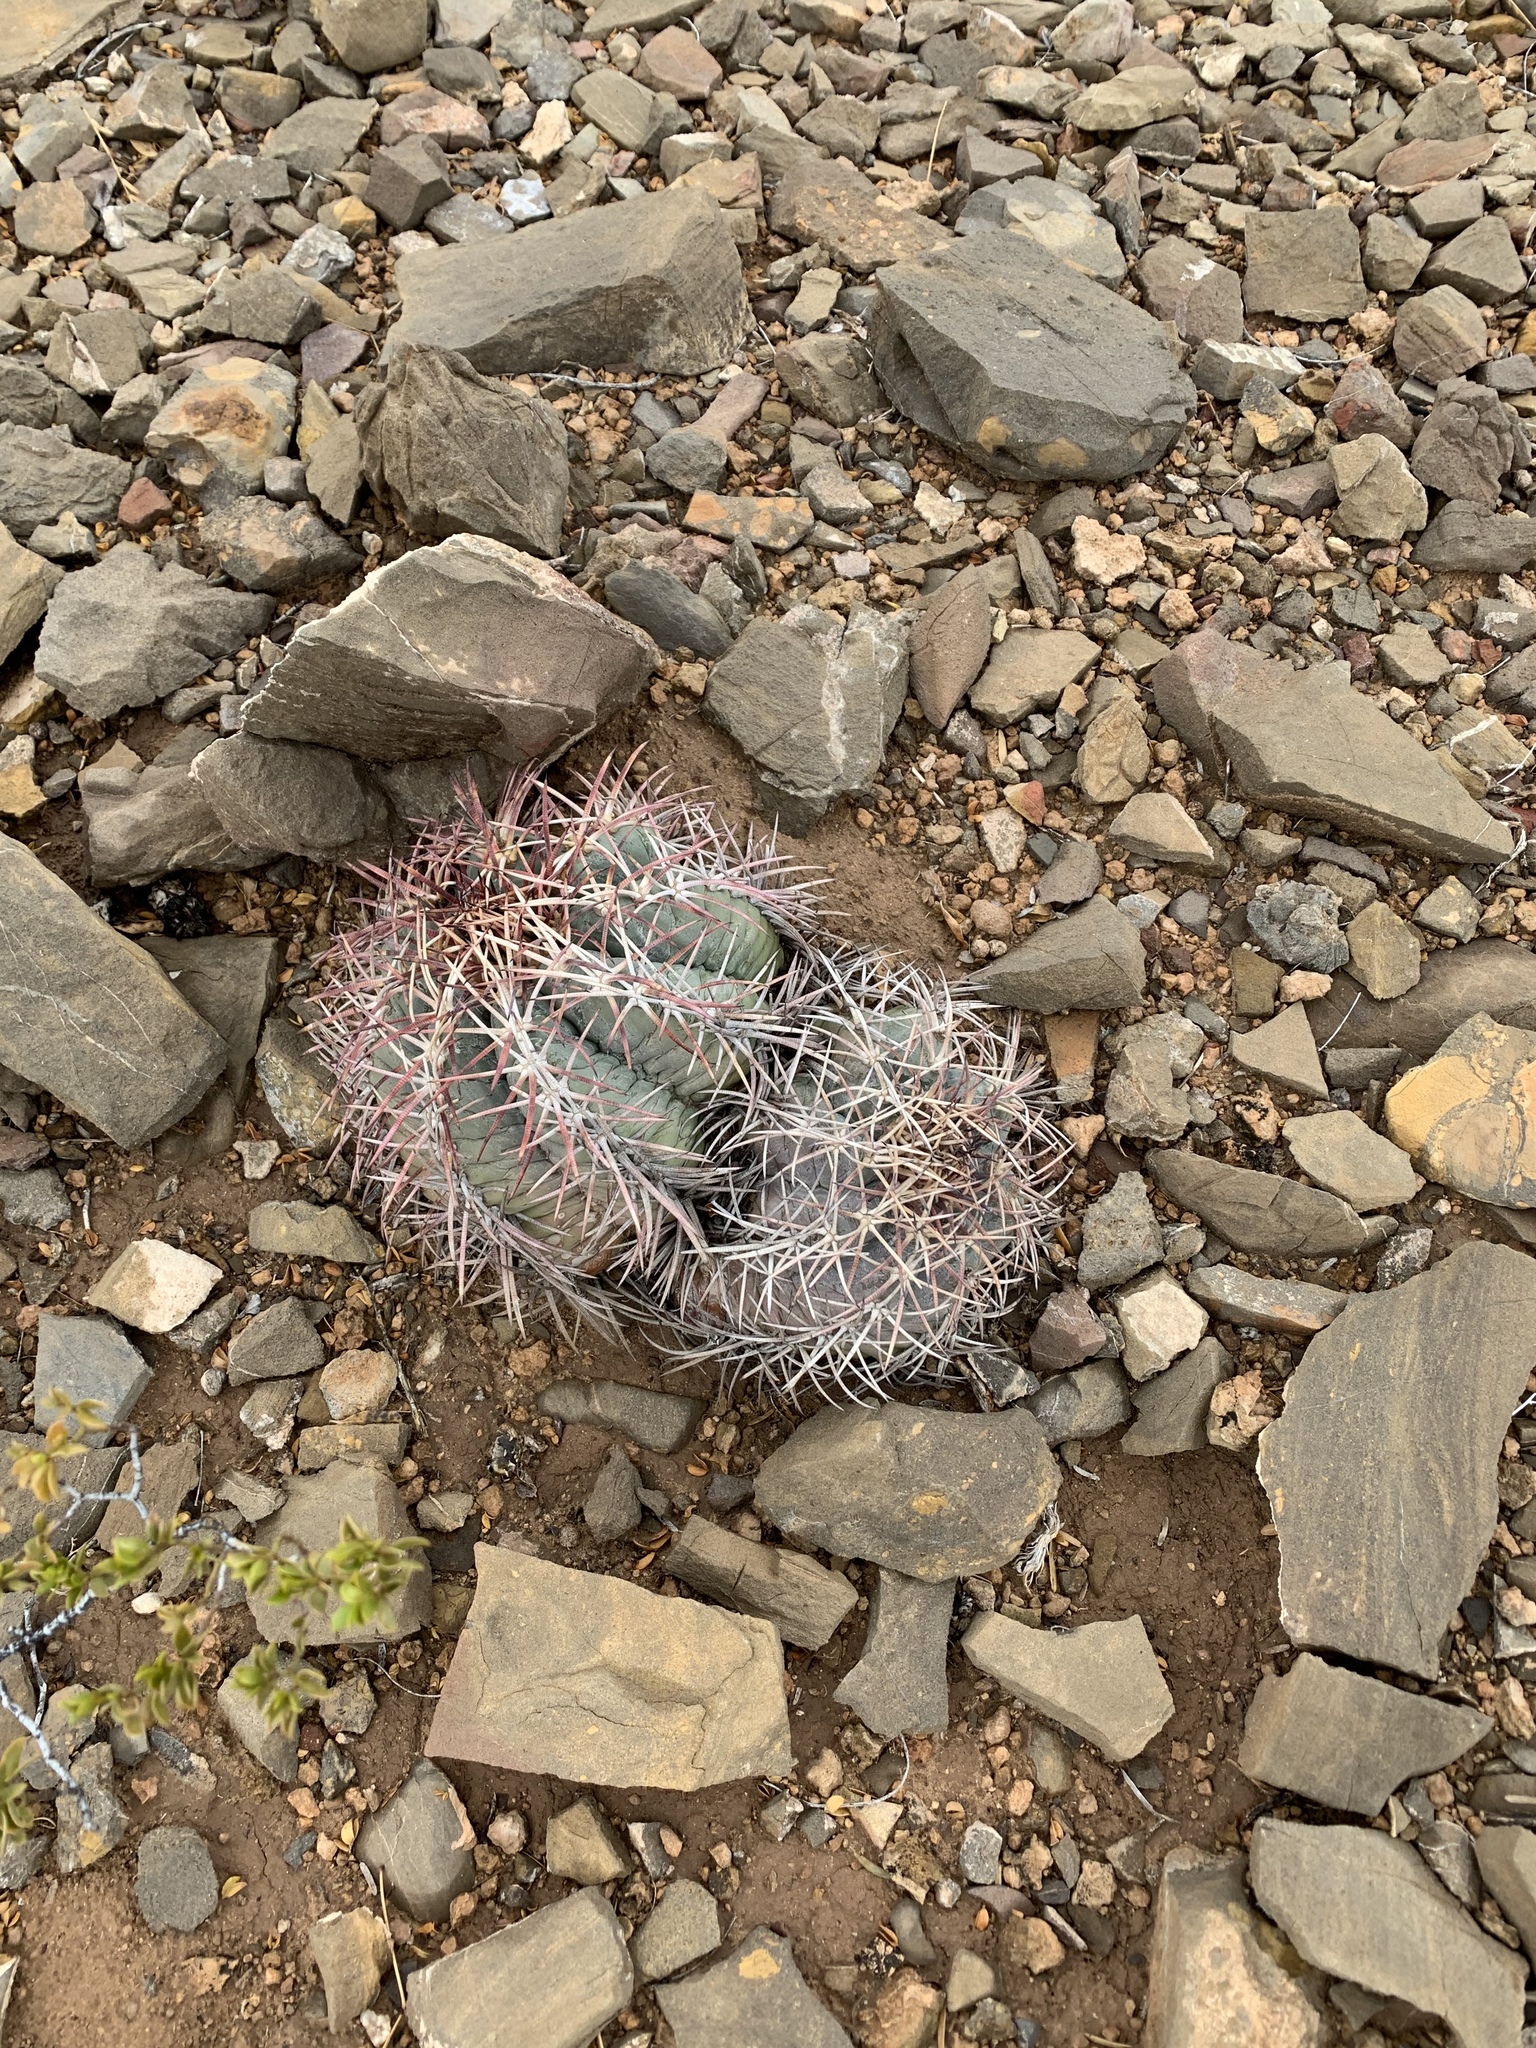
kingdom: Plantae
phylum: Tracheophyta
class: Magnoliopsida
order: Caryophyllales
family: Cactaceae
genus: Echinocactus
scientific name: Echinocactus horizonthalonius
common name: Devilshead
